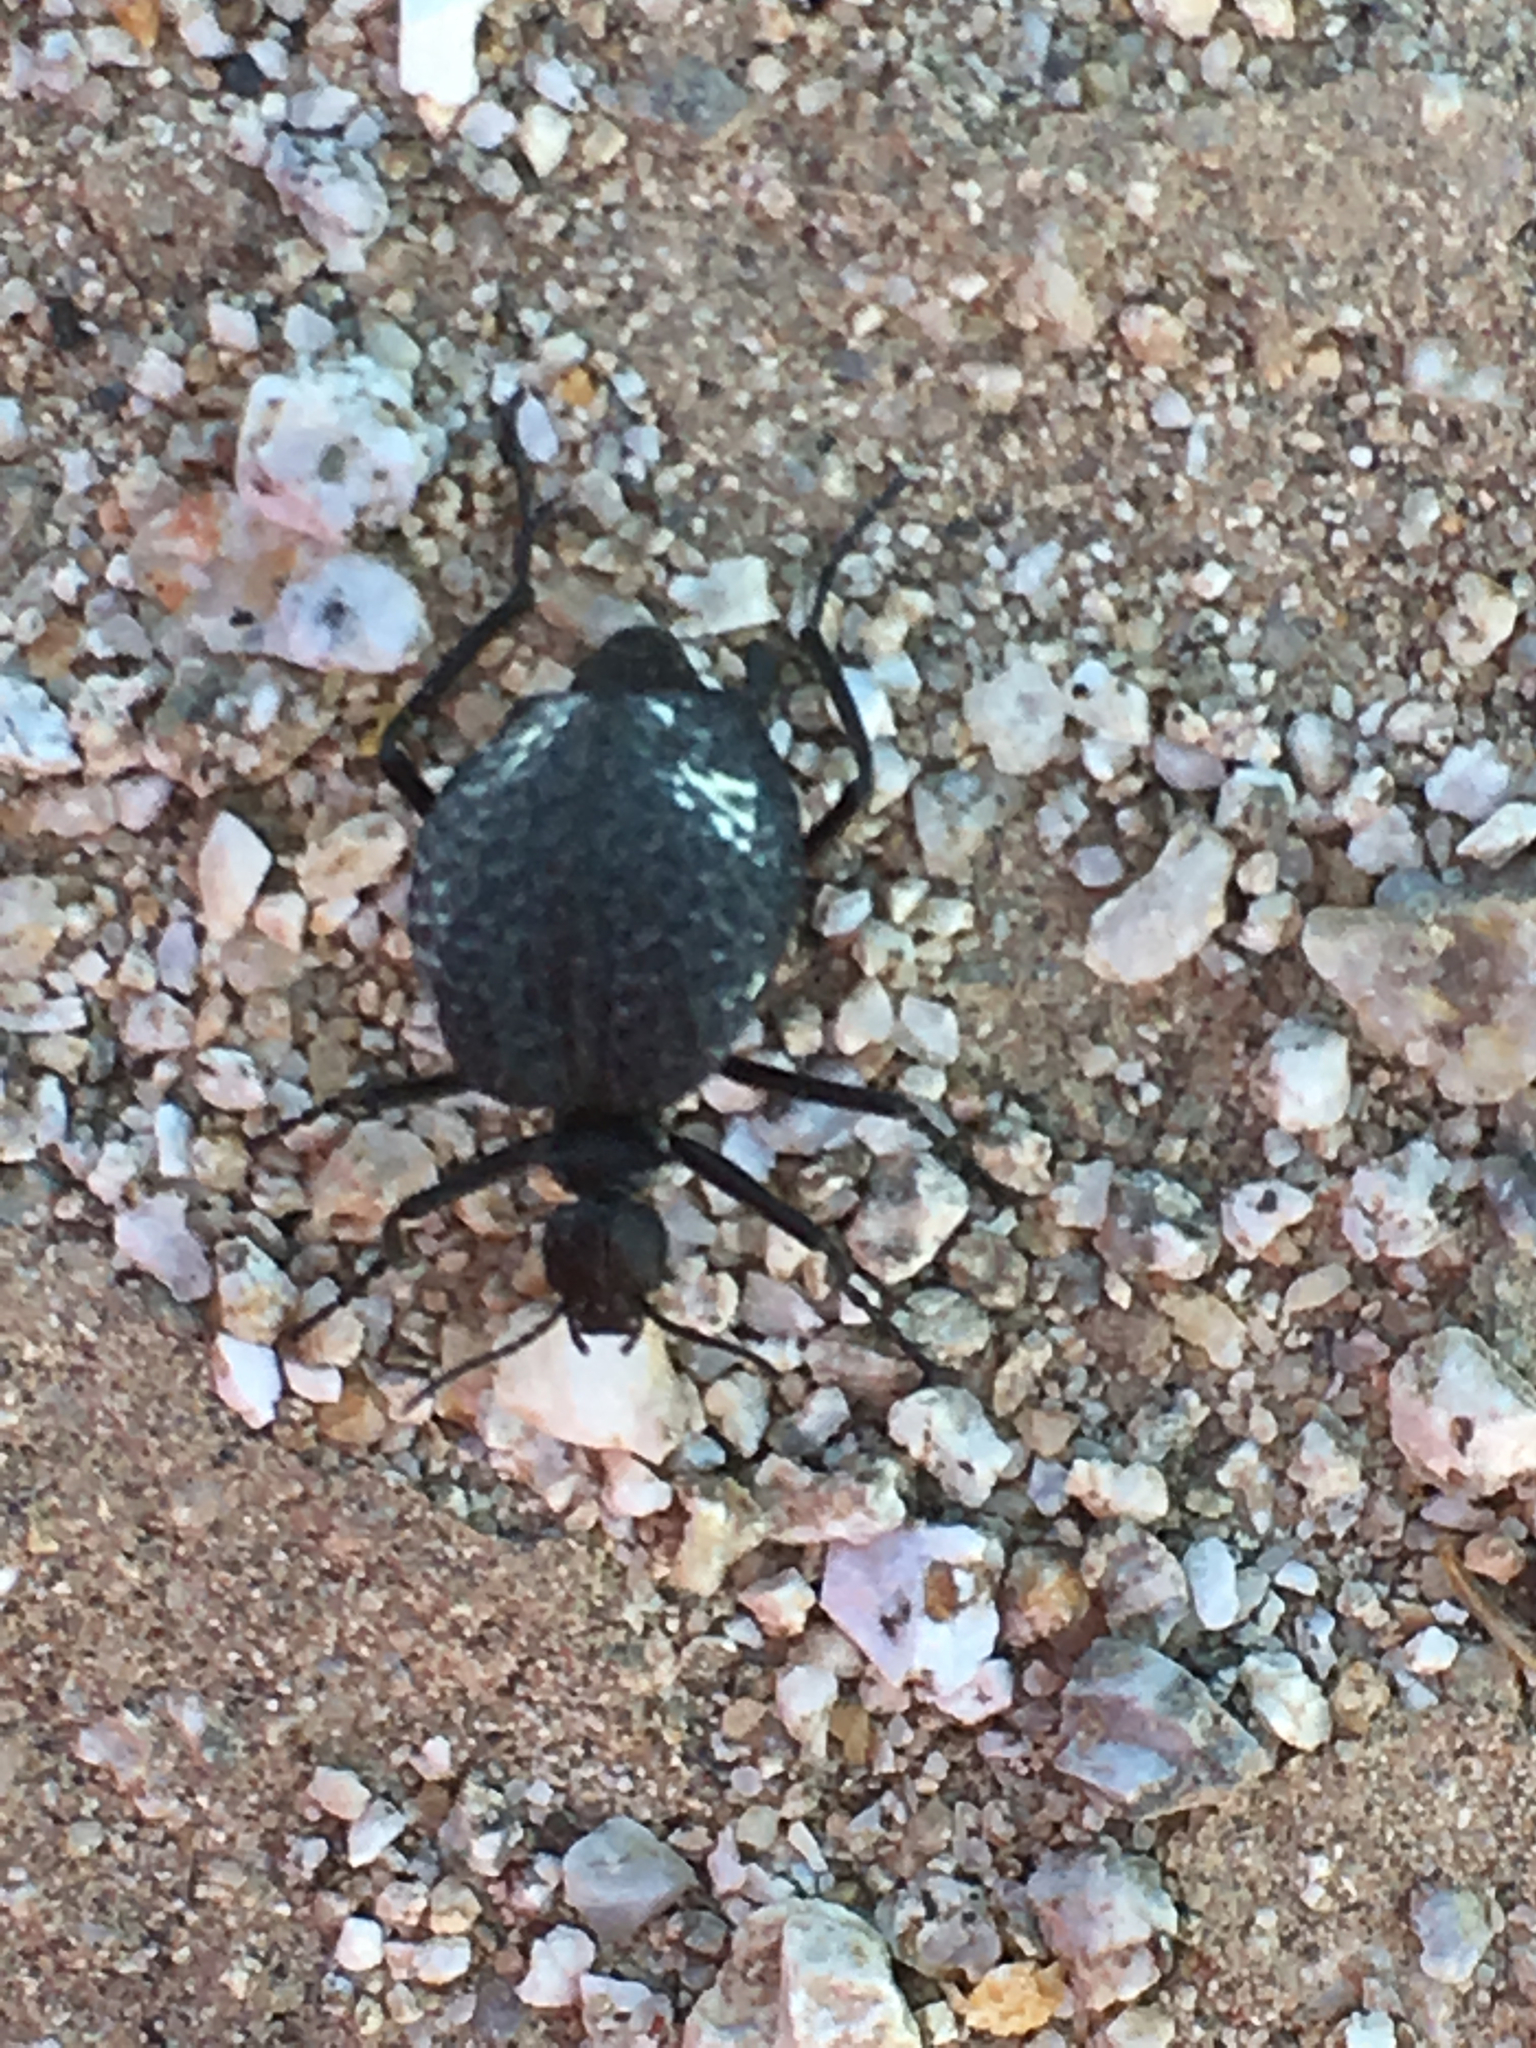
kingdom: Animalia
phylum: Arthropoda
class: Insecta
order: Coleoptera
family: Meloidae
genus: Cysteodemus
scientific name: Cysteodemus armatus
